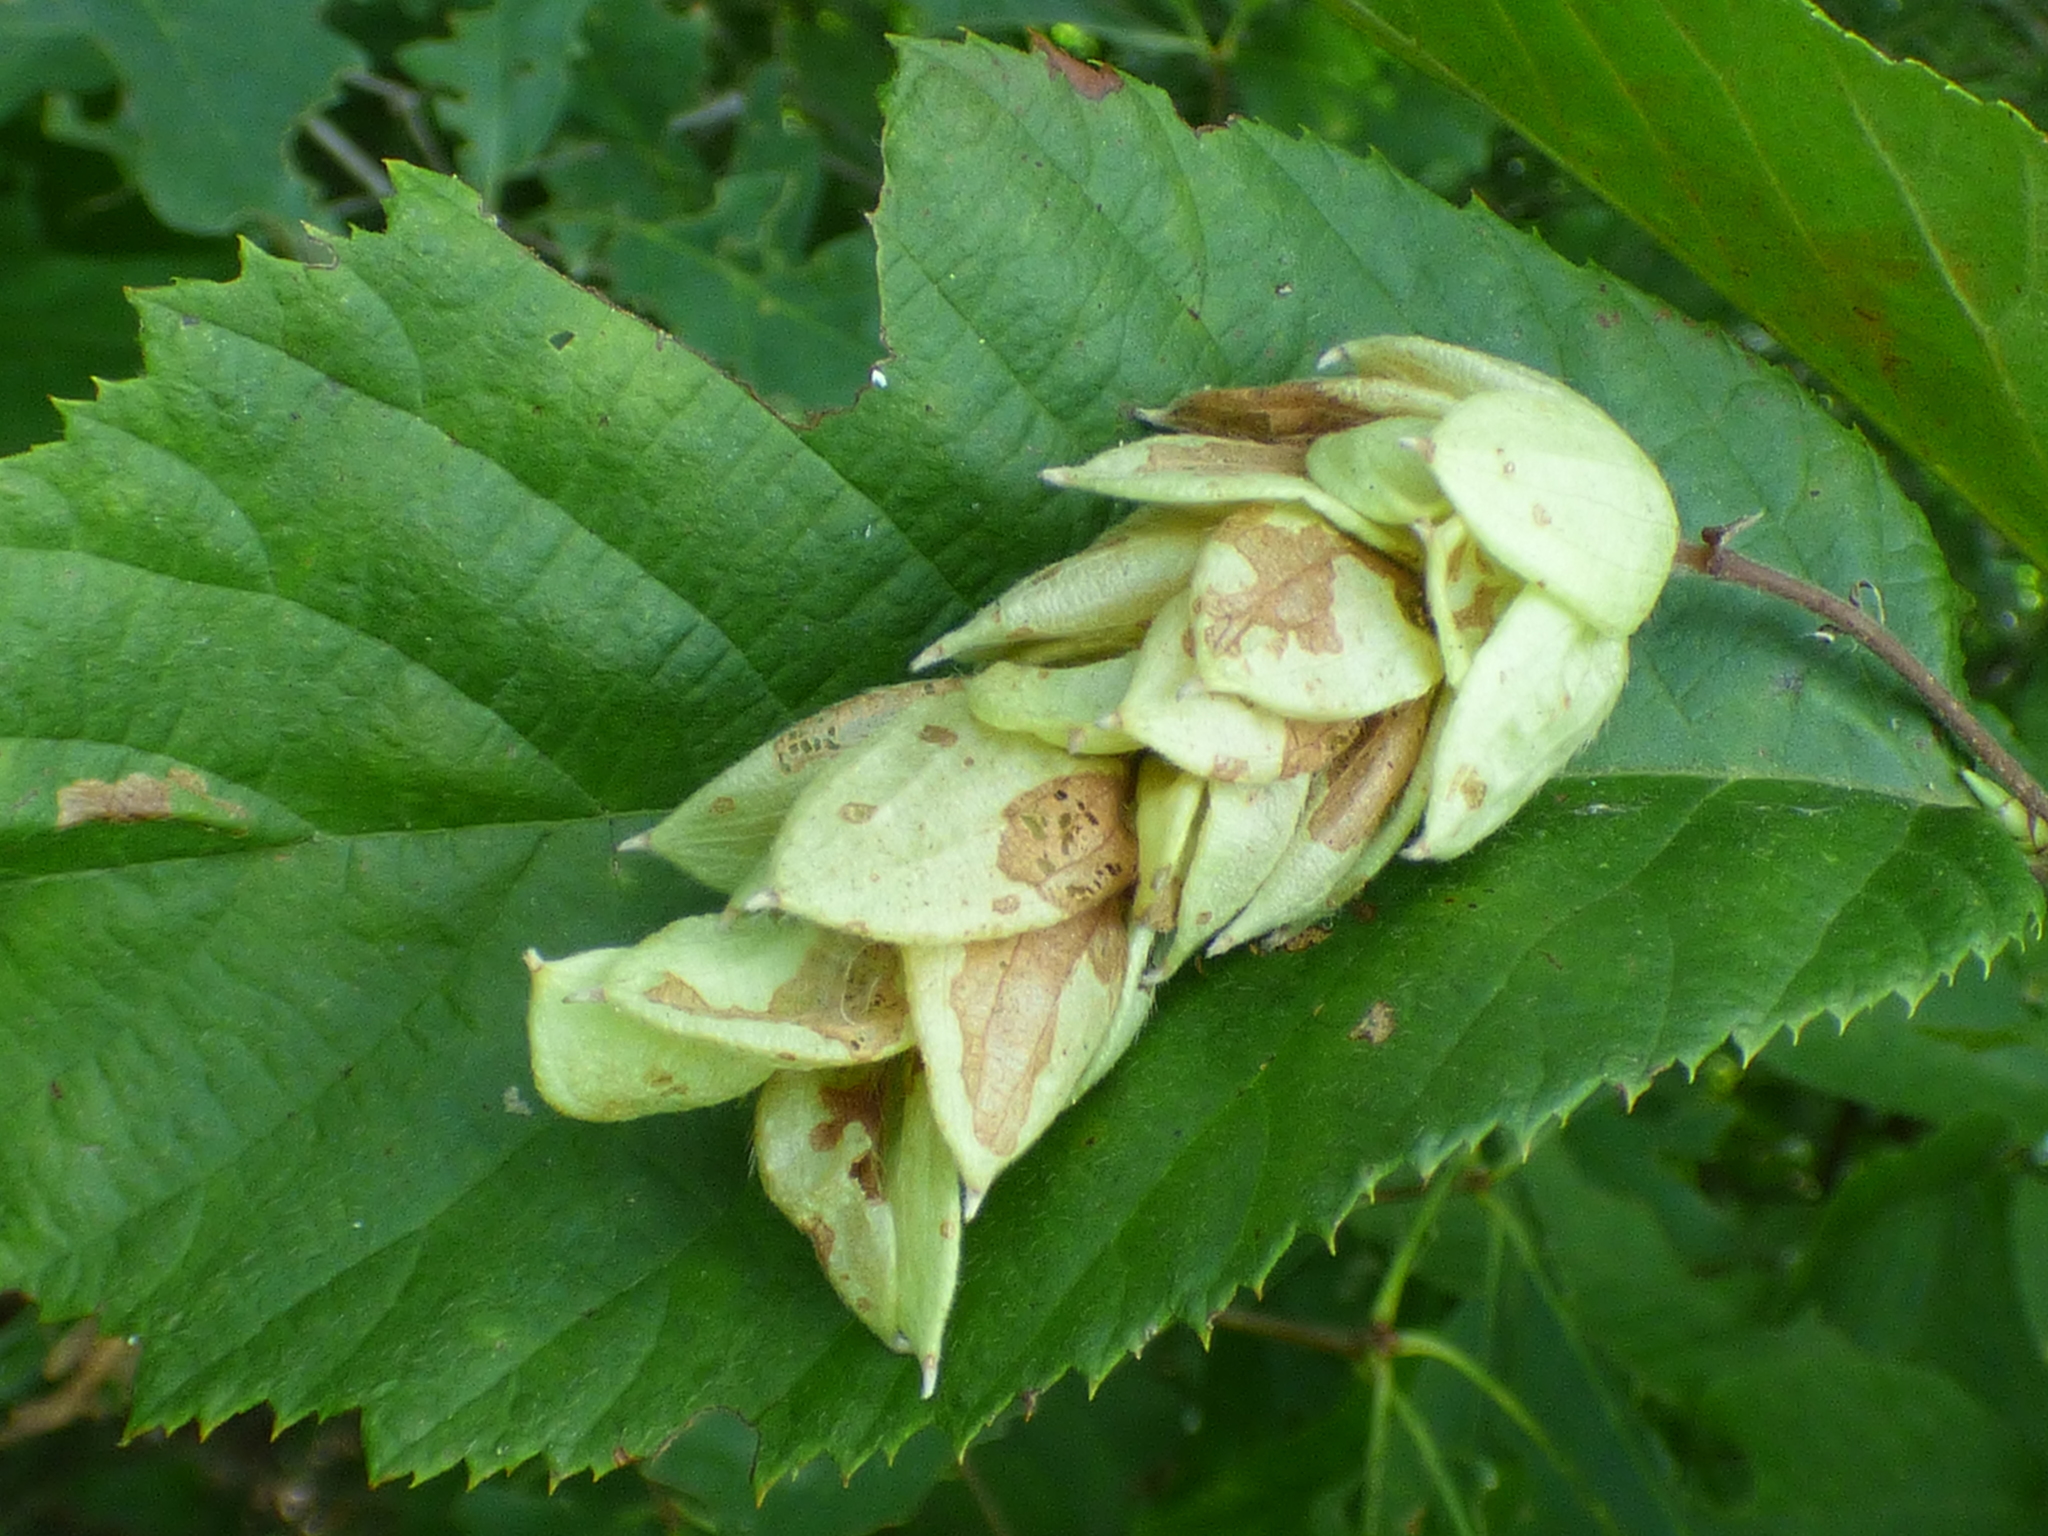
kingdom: Plantae
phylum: Tracheophyta
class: Magnoliopsida
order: Fagales
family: Betulaceae
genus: Ostrya
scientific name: Ostrya virginiana
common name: Ironwood
